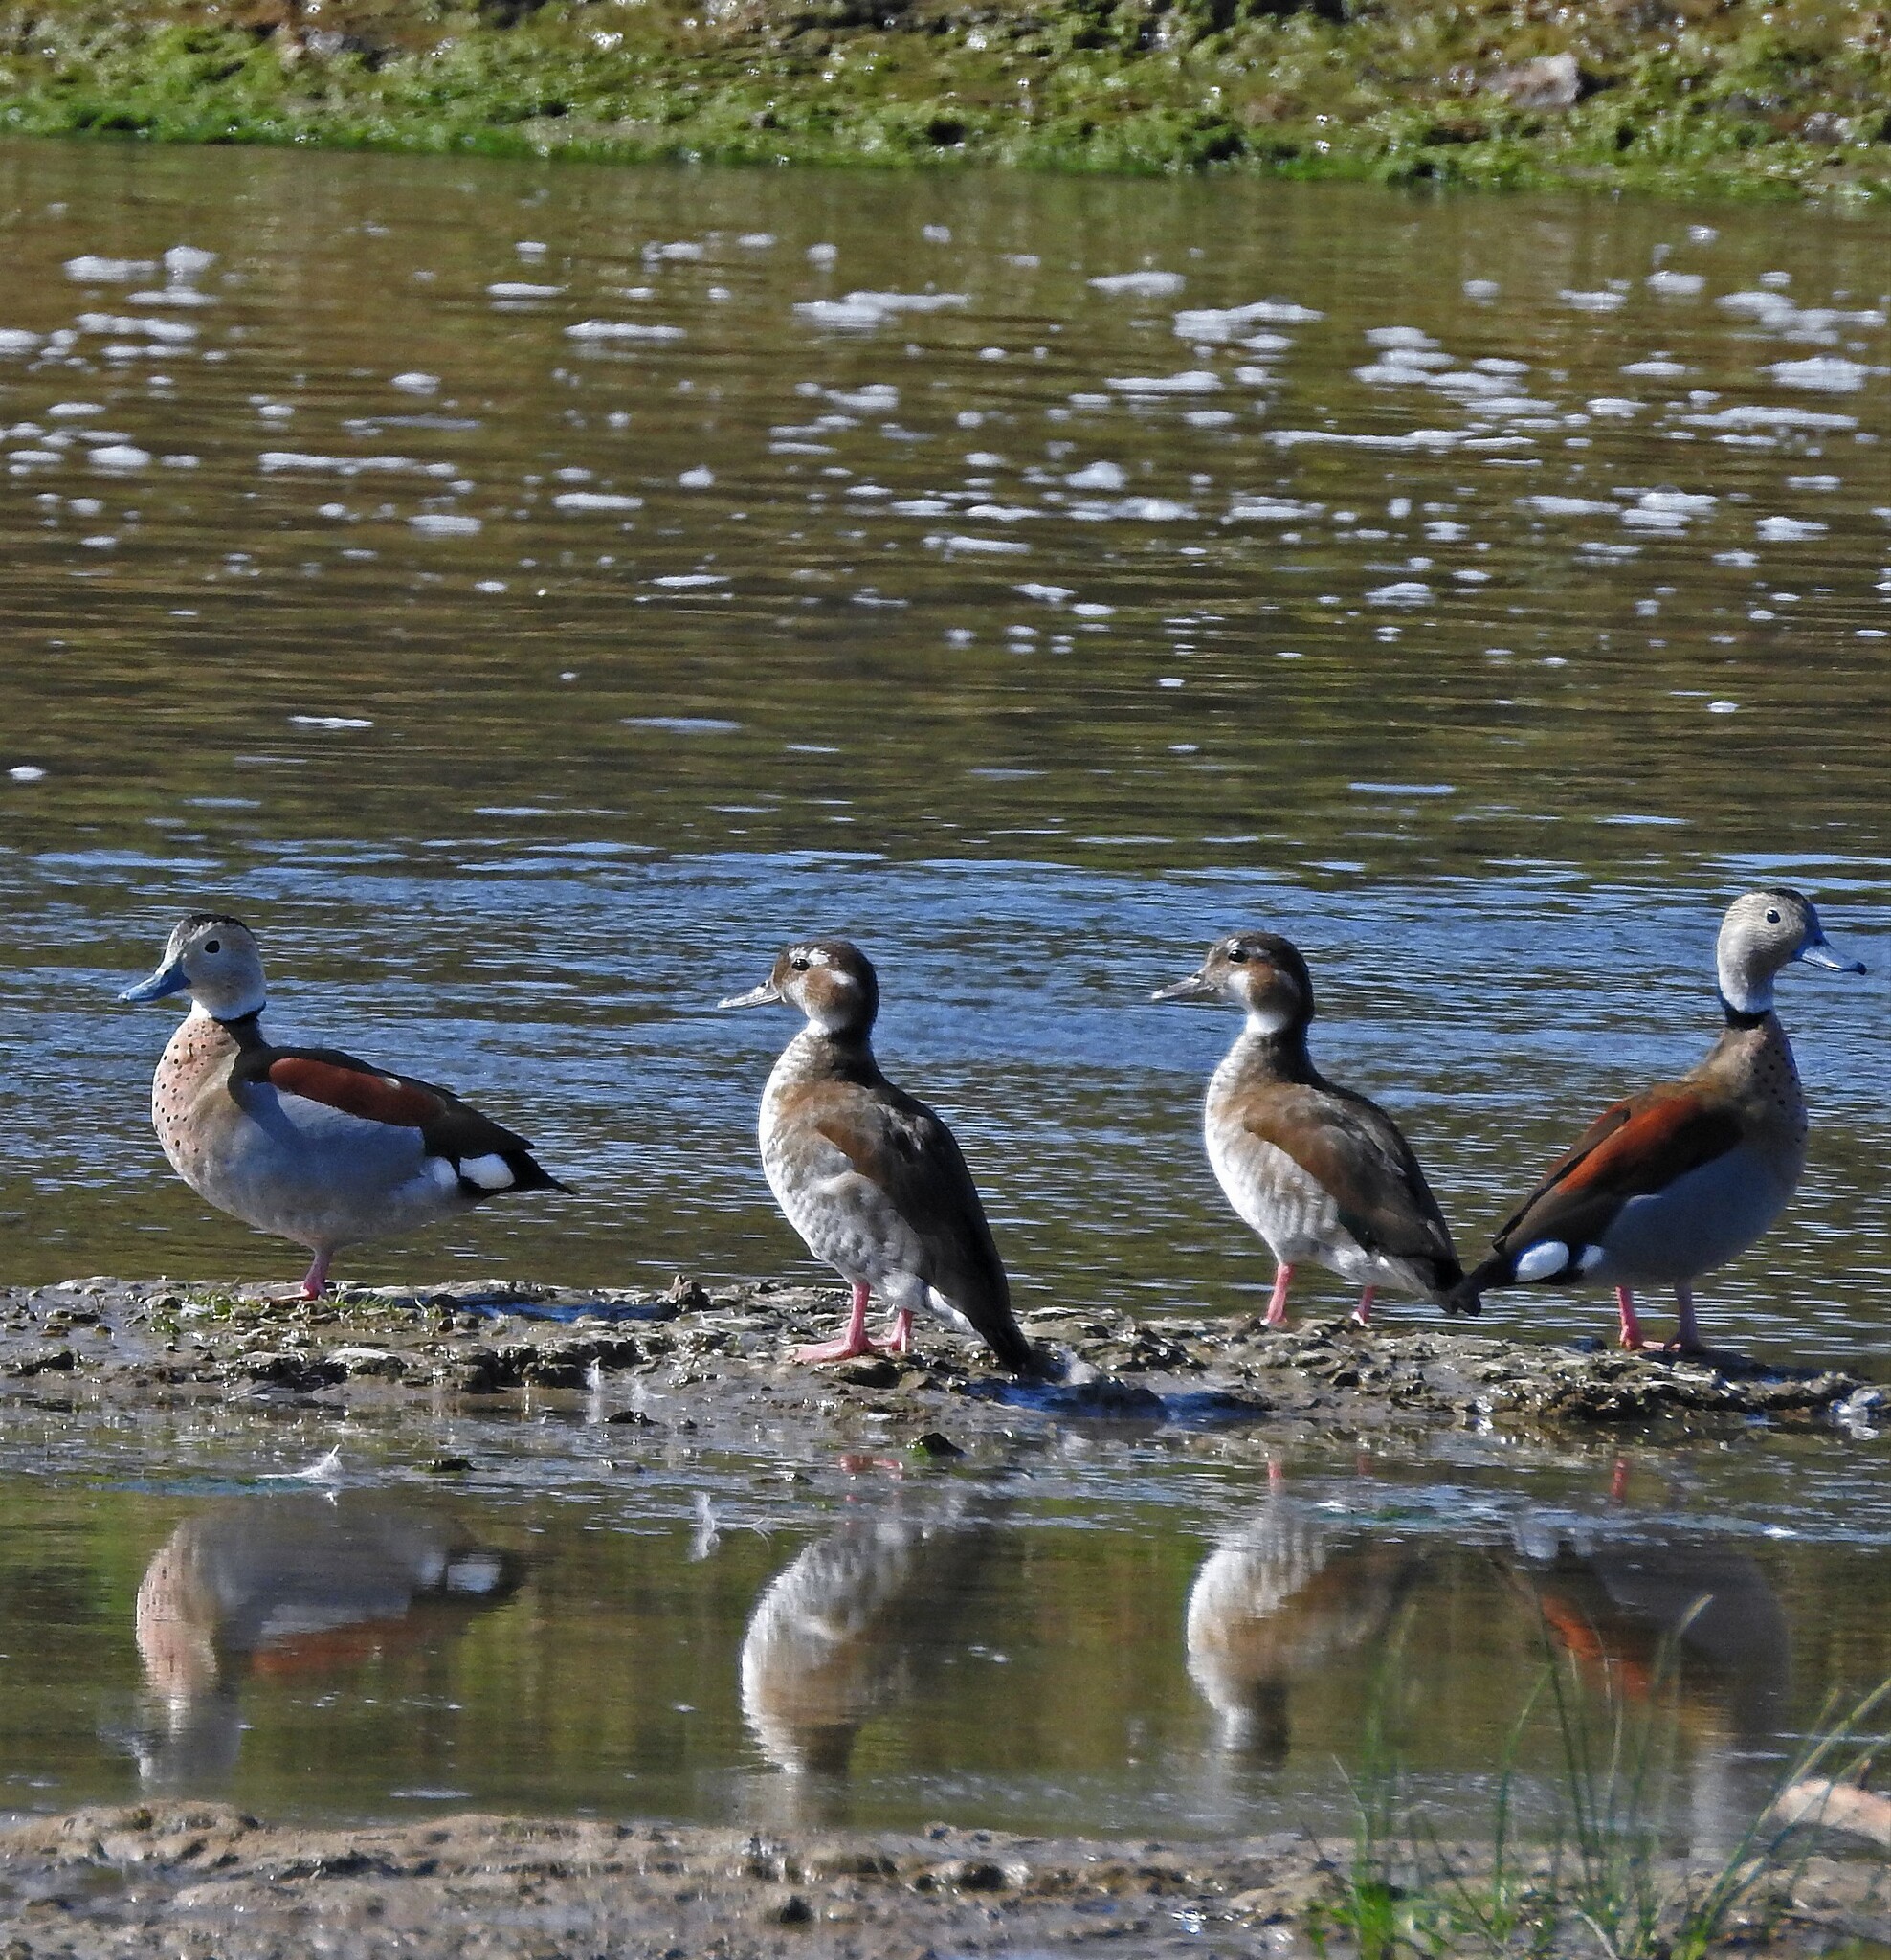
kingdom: Animalia
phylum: Chordata
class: Aves
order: Anseriformes
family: Anatidae
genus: Callonetta
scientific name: Callonetta leucophrys
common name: Ringed teal
